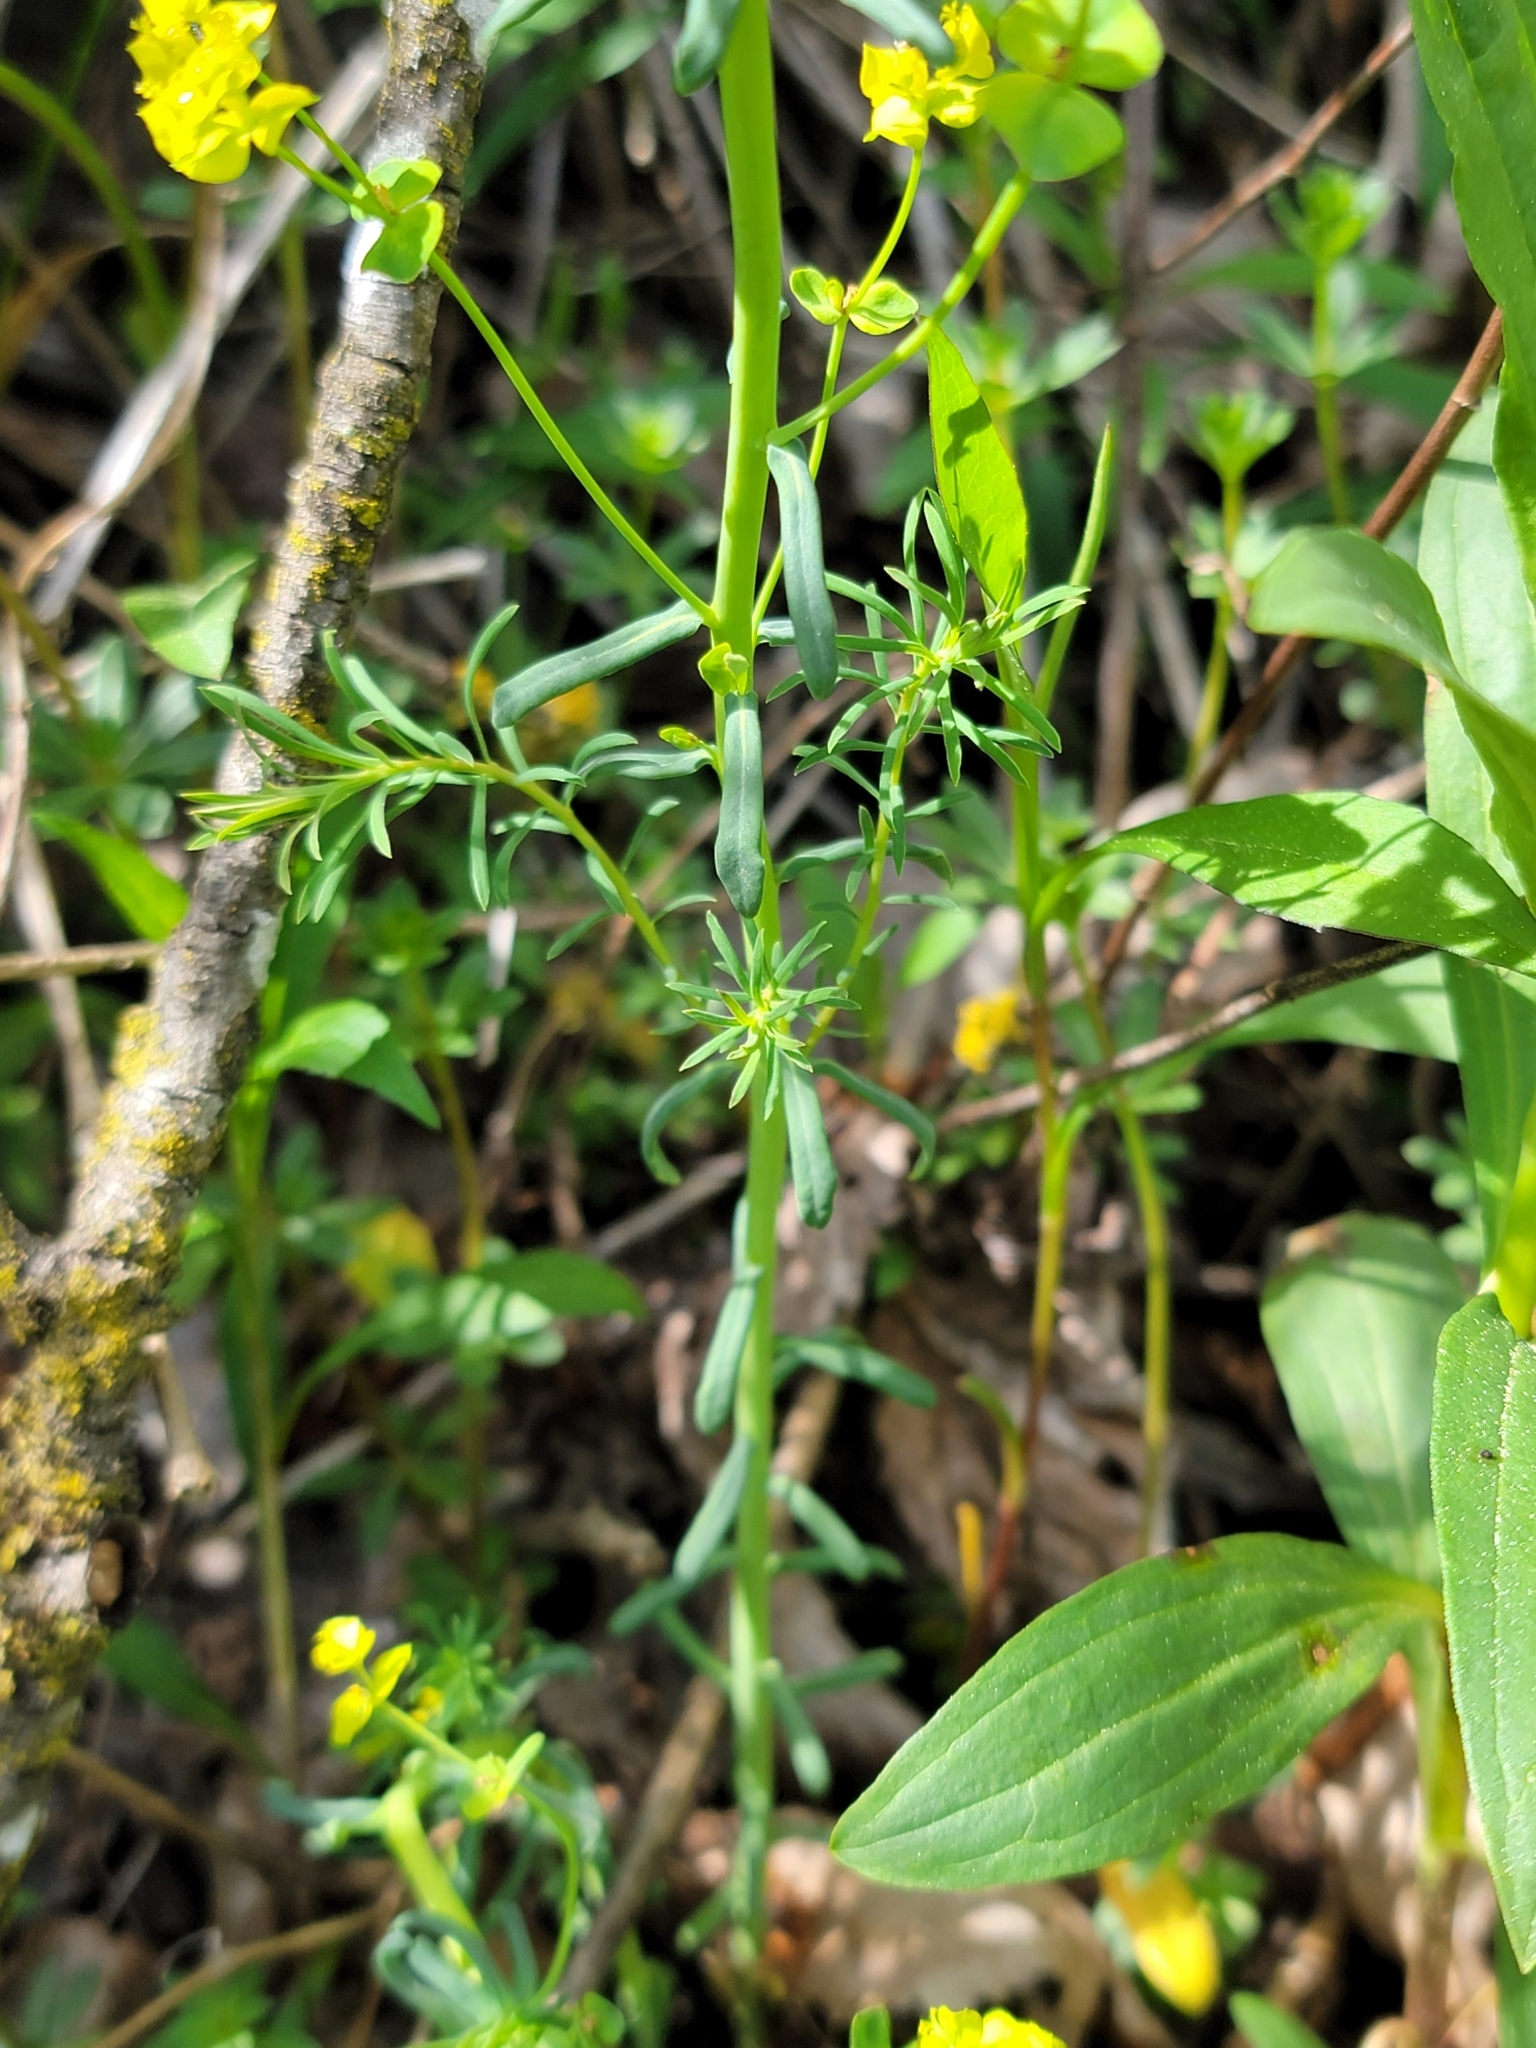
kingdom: Plantae
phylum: Tracheophyta
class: Magnoliopsida
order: Malpighiales
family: Euphorbiaceae
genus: Euphorbia
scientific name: Euphorbia cyparissias
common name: Cypress spurge
